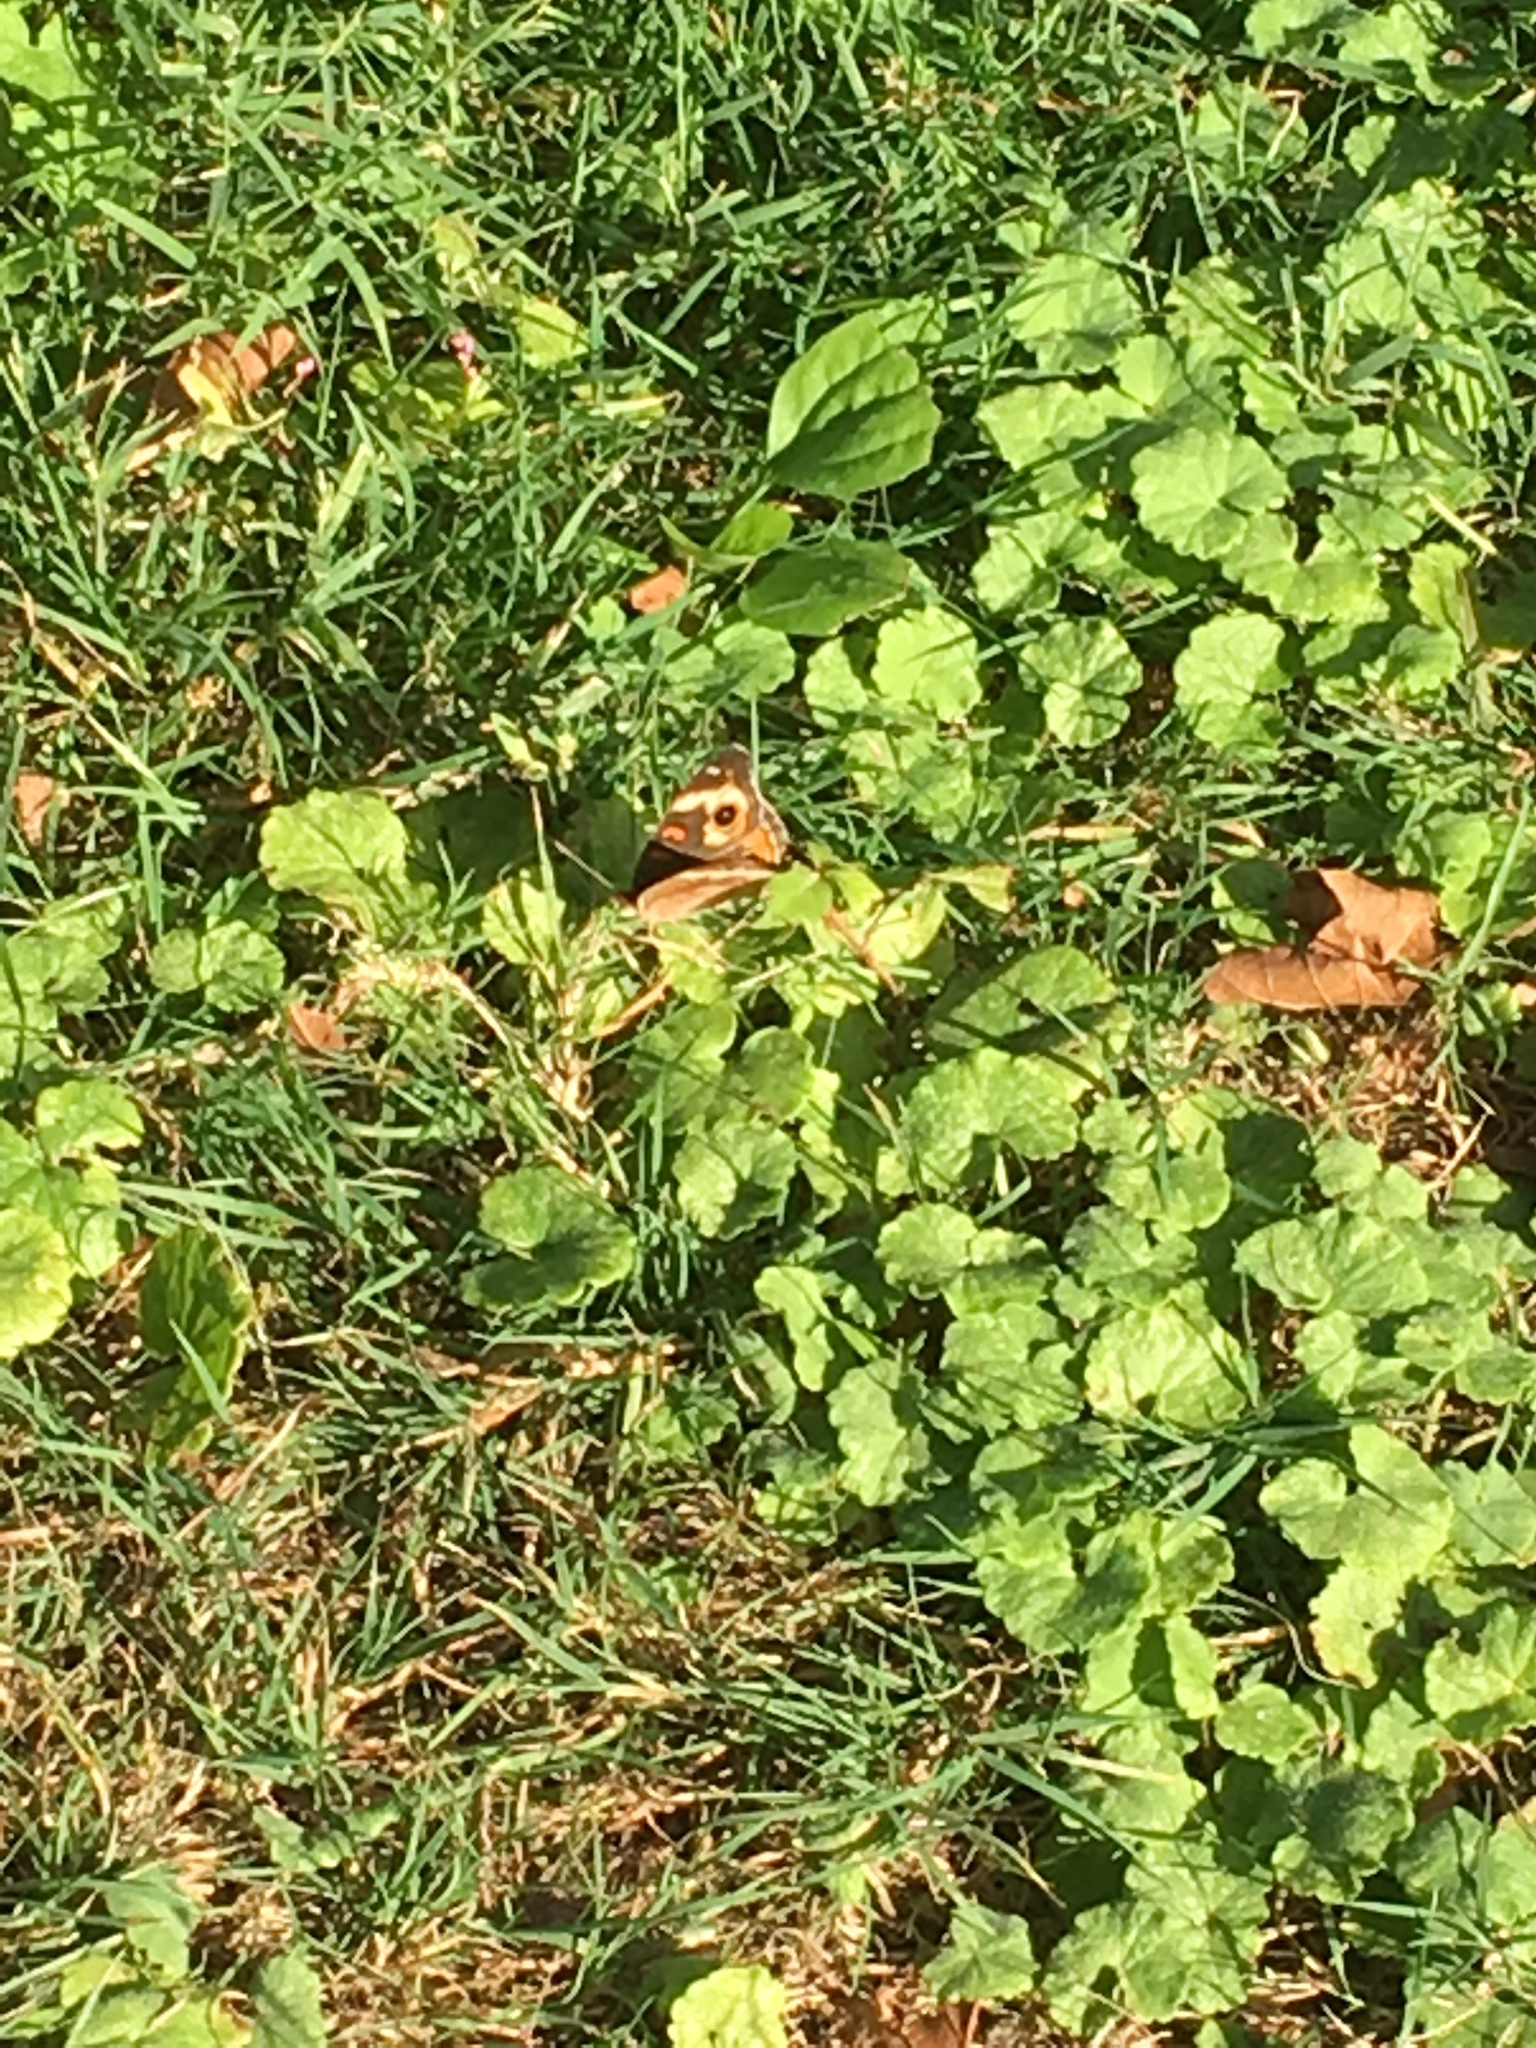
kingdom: Animalia
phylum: Arthropoda
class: Insecta
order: Lepidoptera
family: Nymphalidae
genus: Junonia
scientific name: Junonia coenia
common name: Common buckeye
